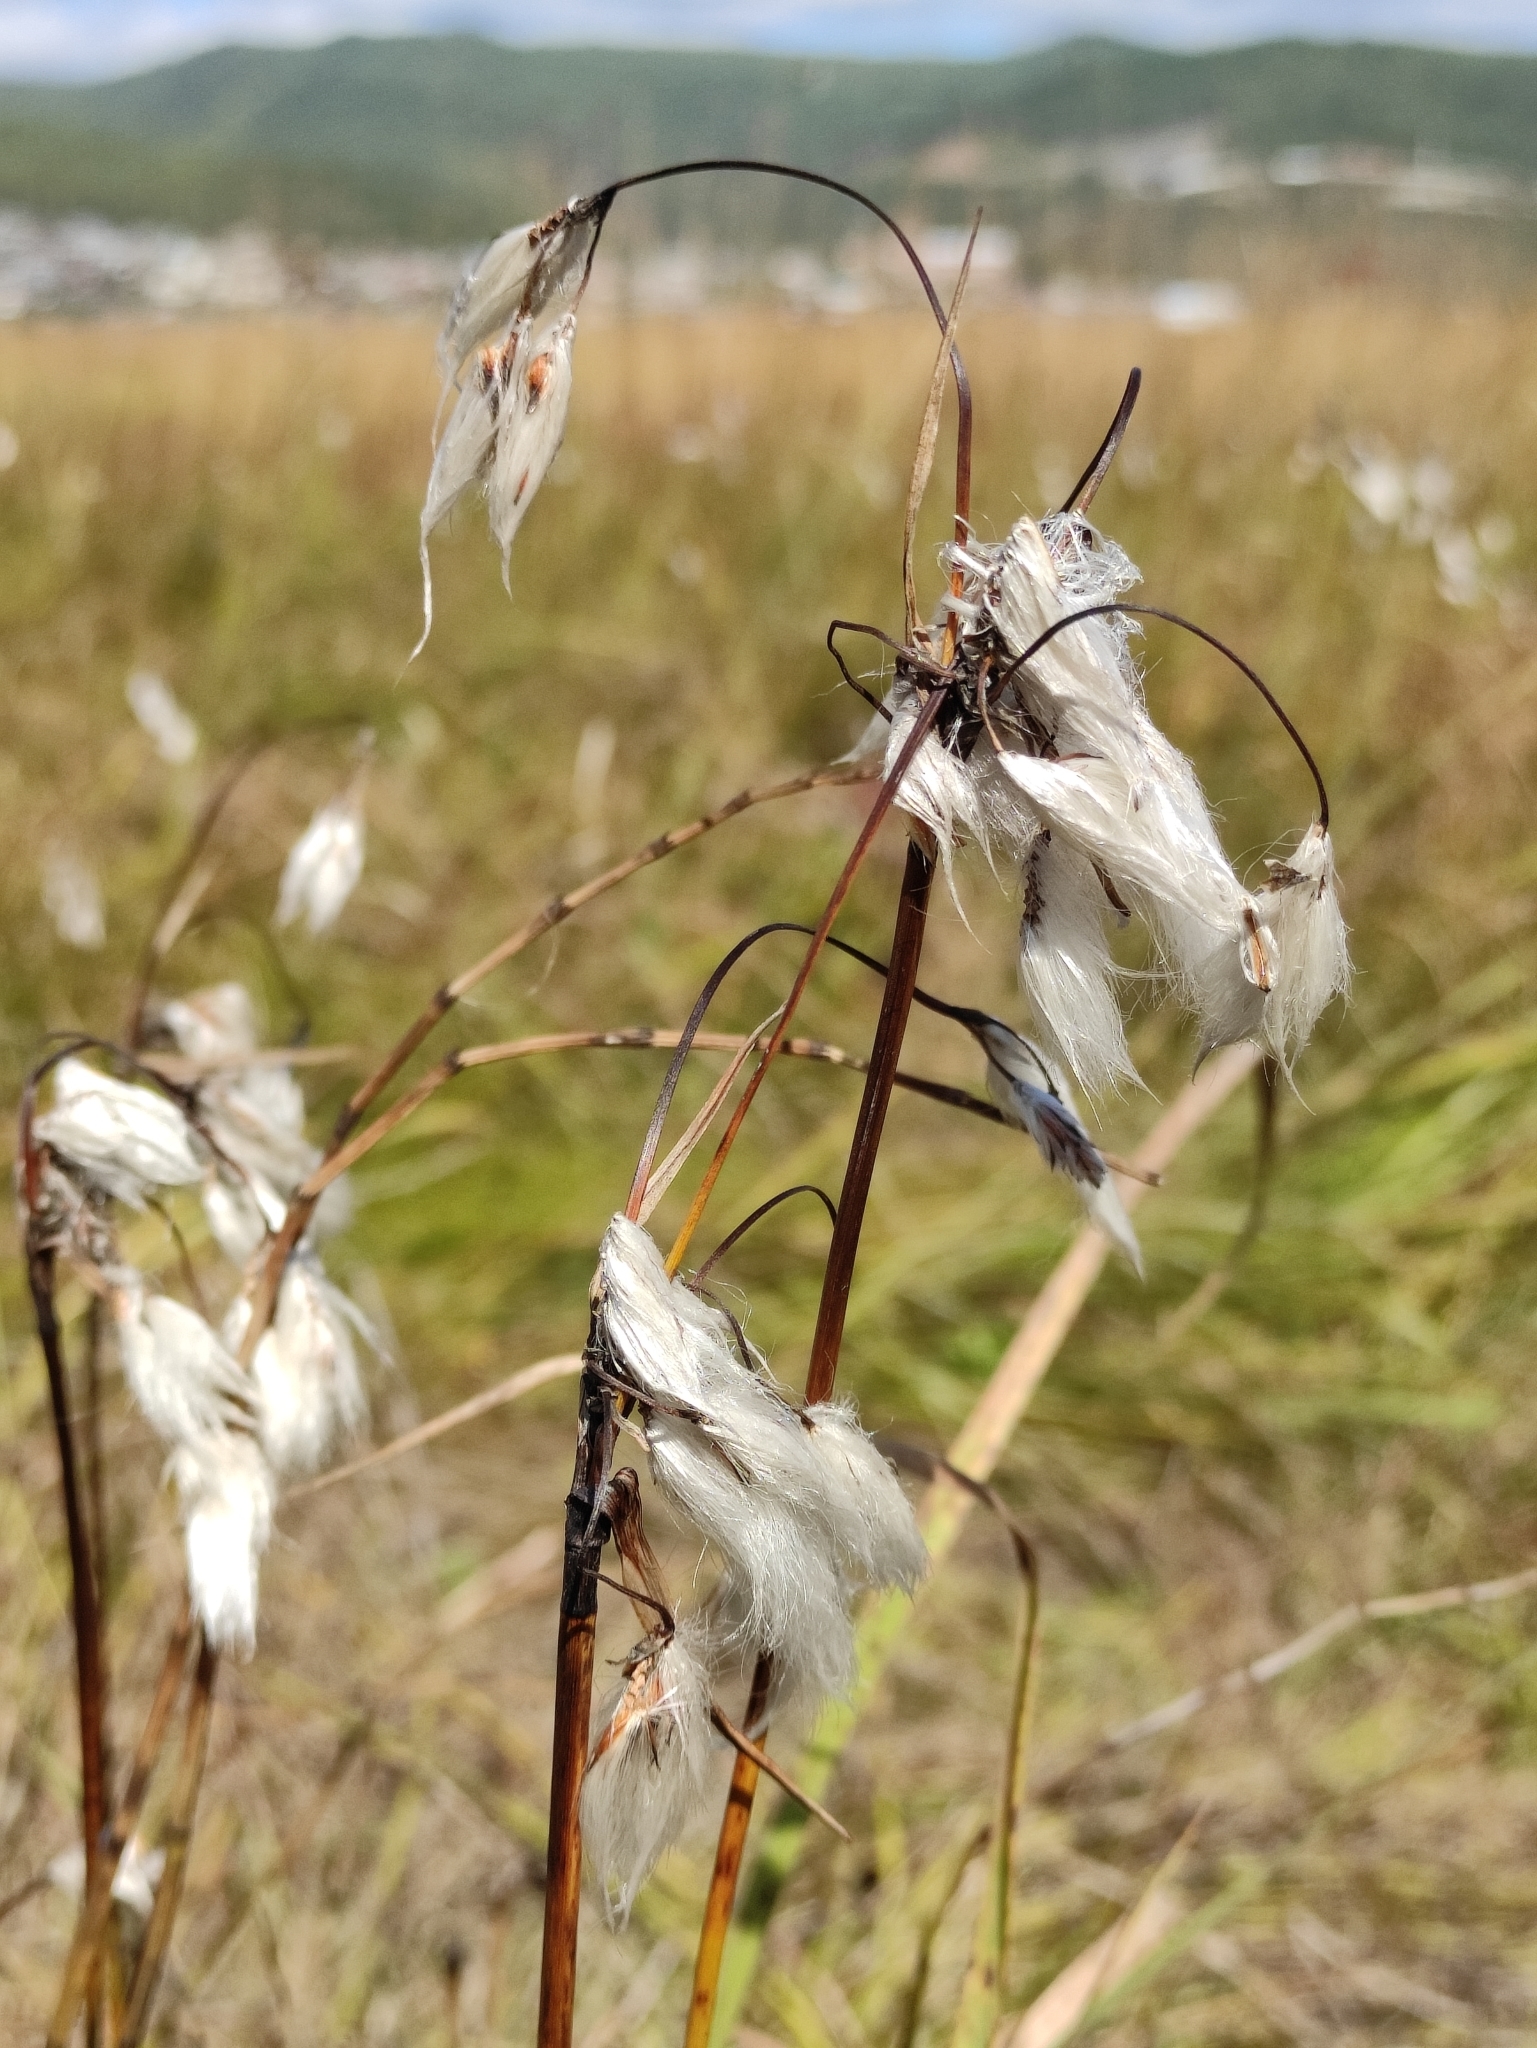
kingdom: Plantae
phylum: Tracheophyta
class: Liliopsida
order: Poales
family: Cyperaceae
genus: Eriophorum
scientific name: Eriophorum angustifolium
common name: Common cottongrass
